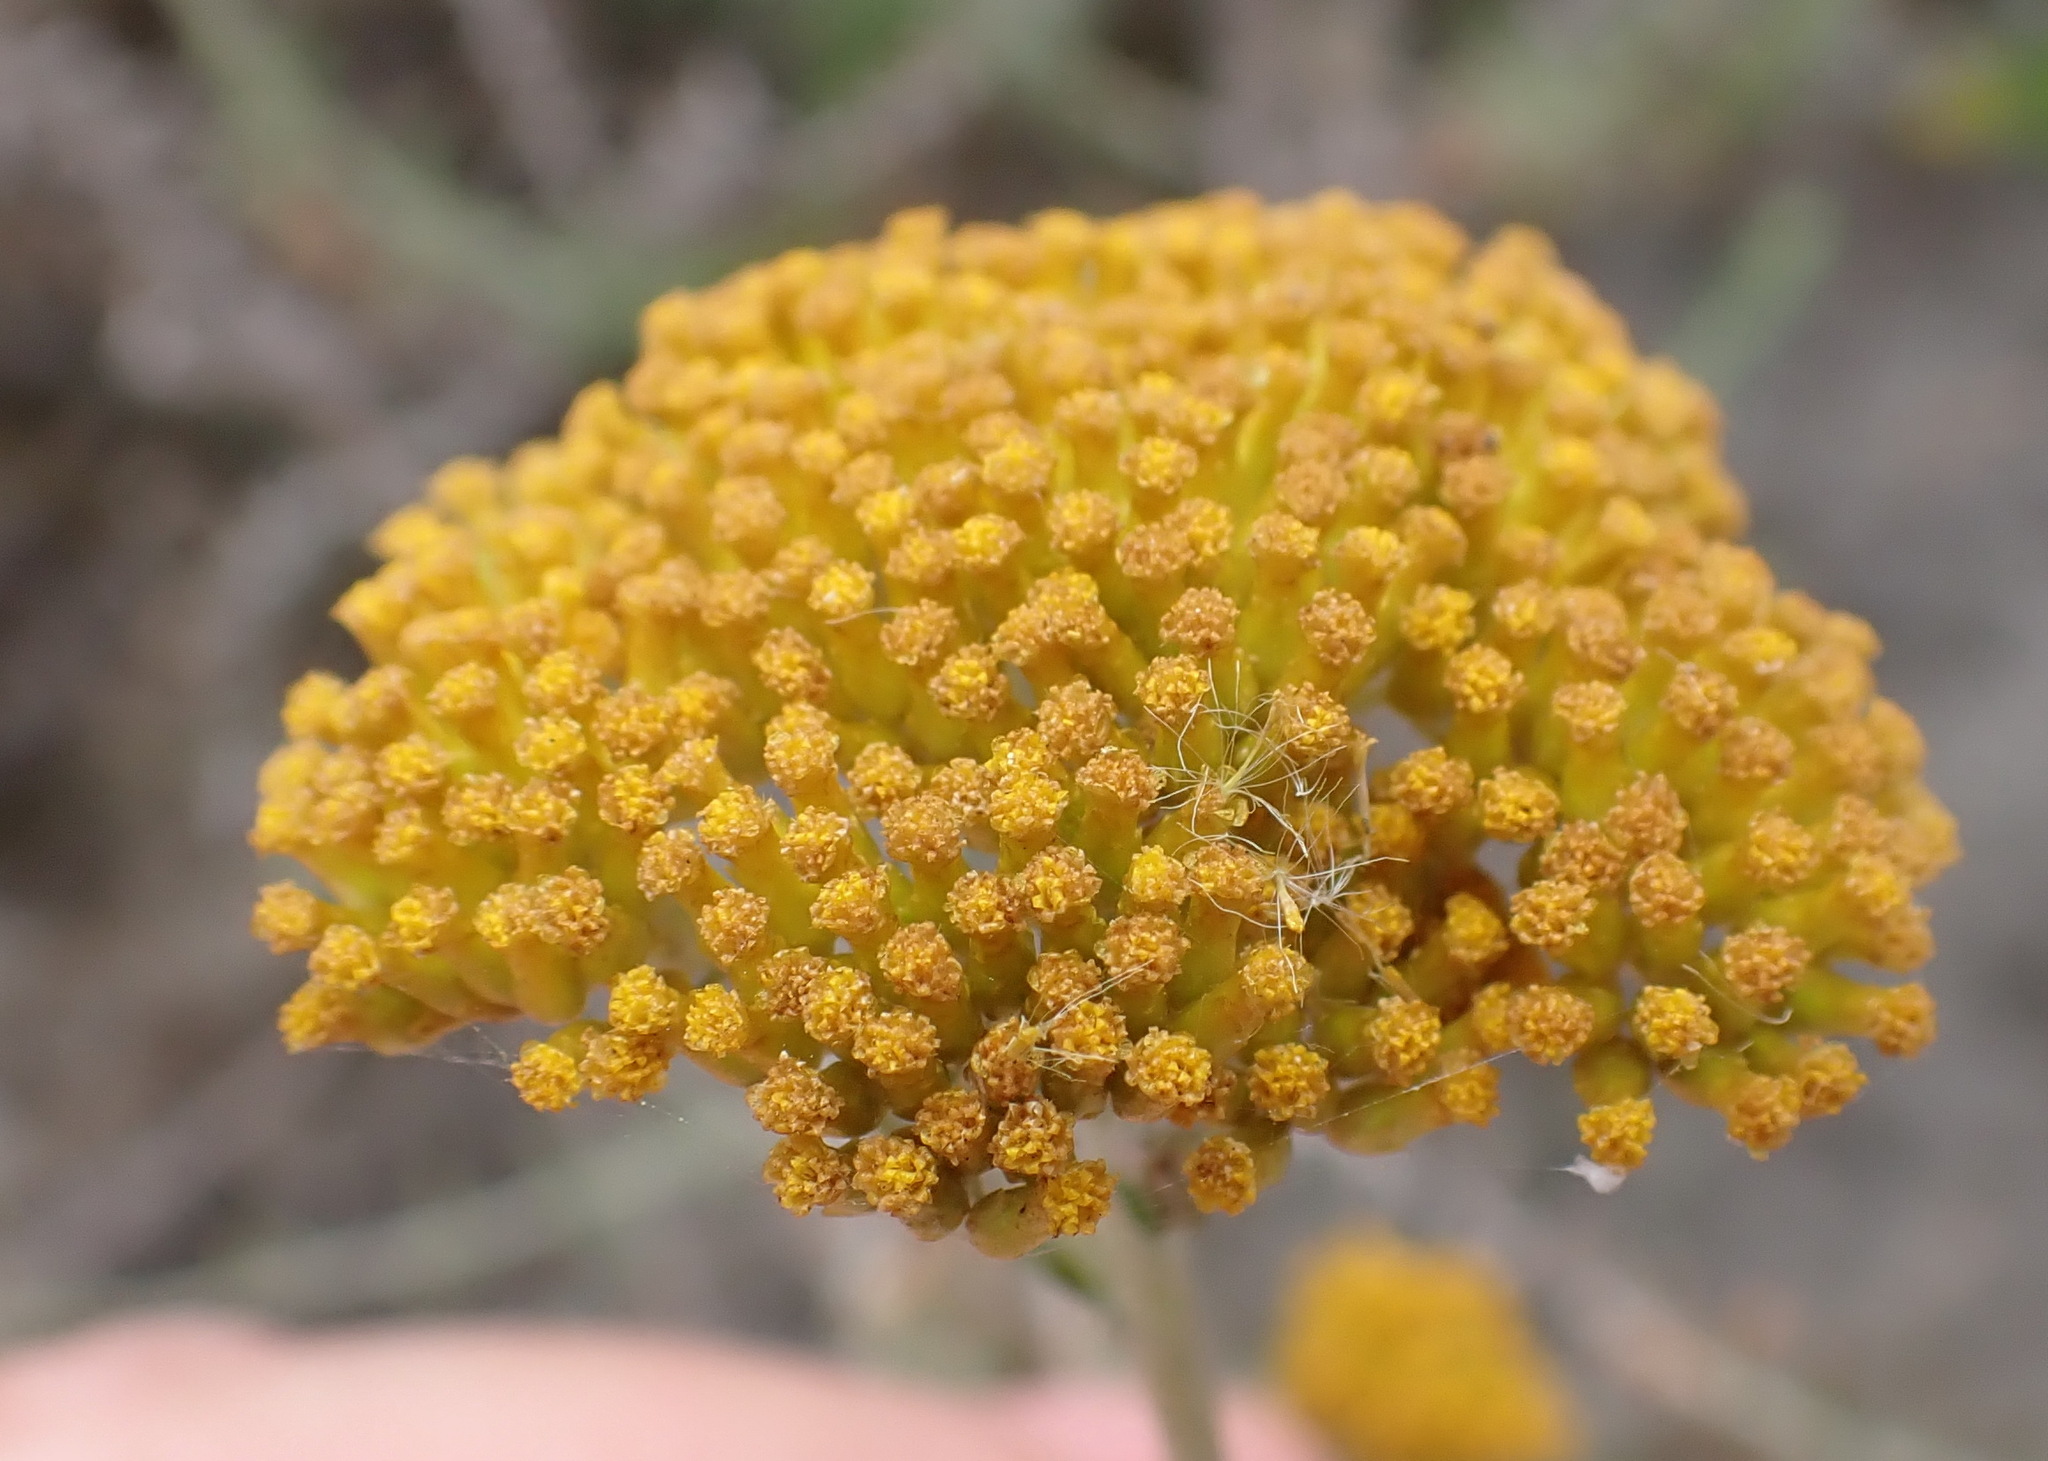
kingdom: Plantae
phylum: Tracheophyta
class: Magnoliopsida
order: Asterales
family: Asteraceae
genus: Helichrysum
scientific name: Helichrysum cymosum
